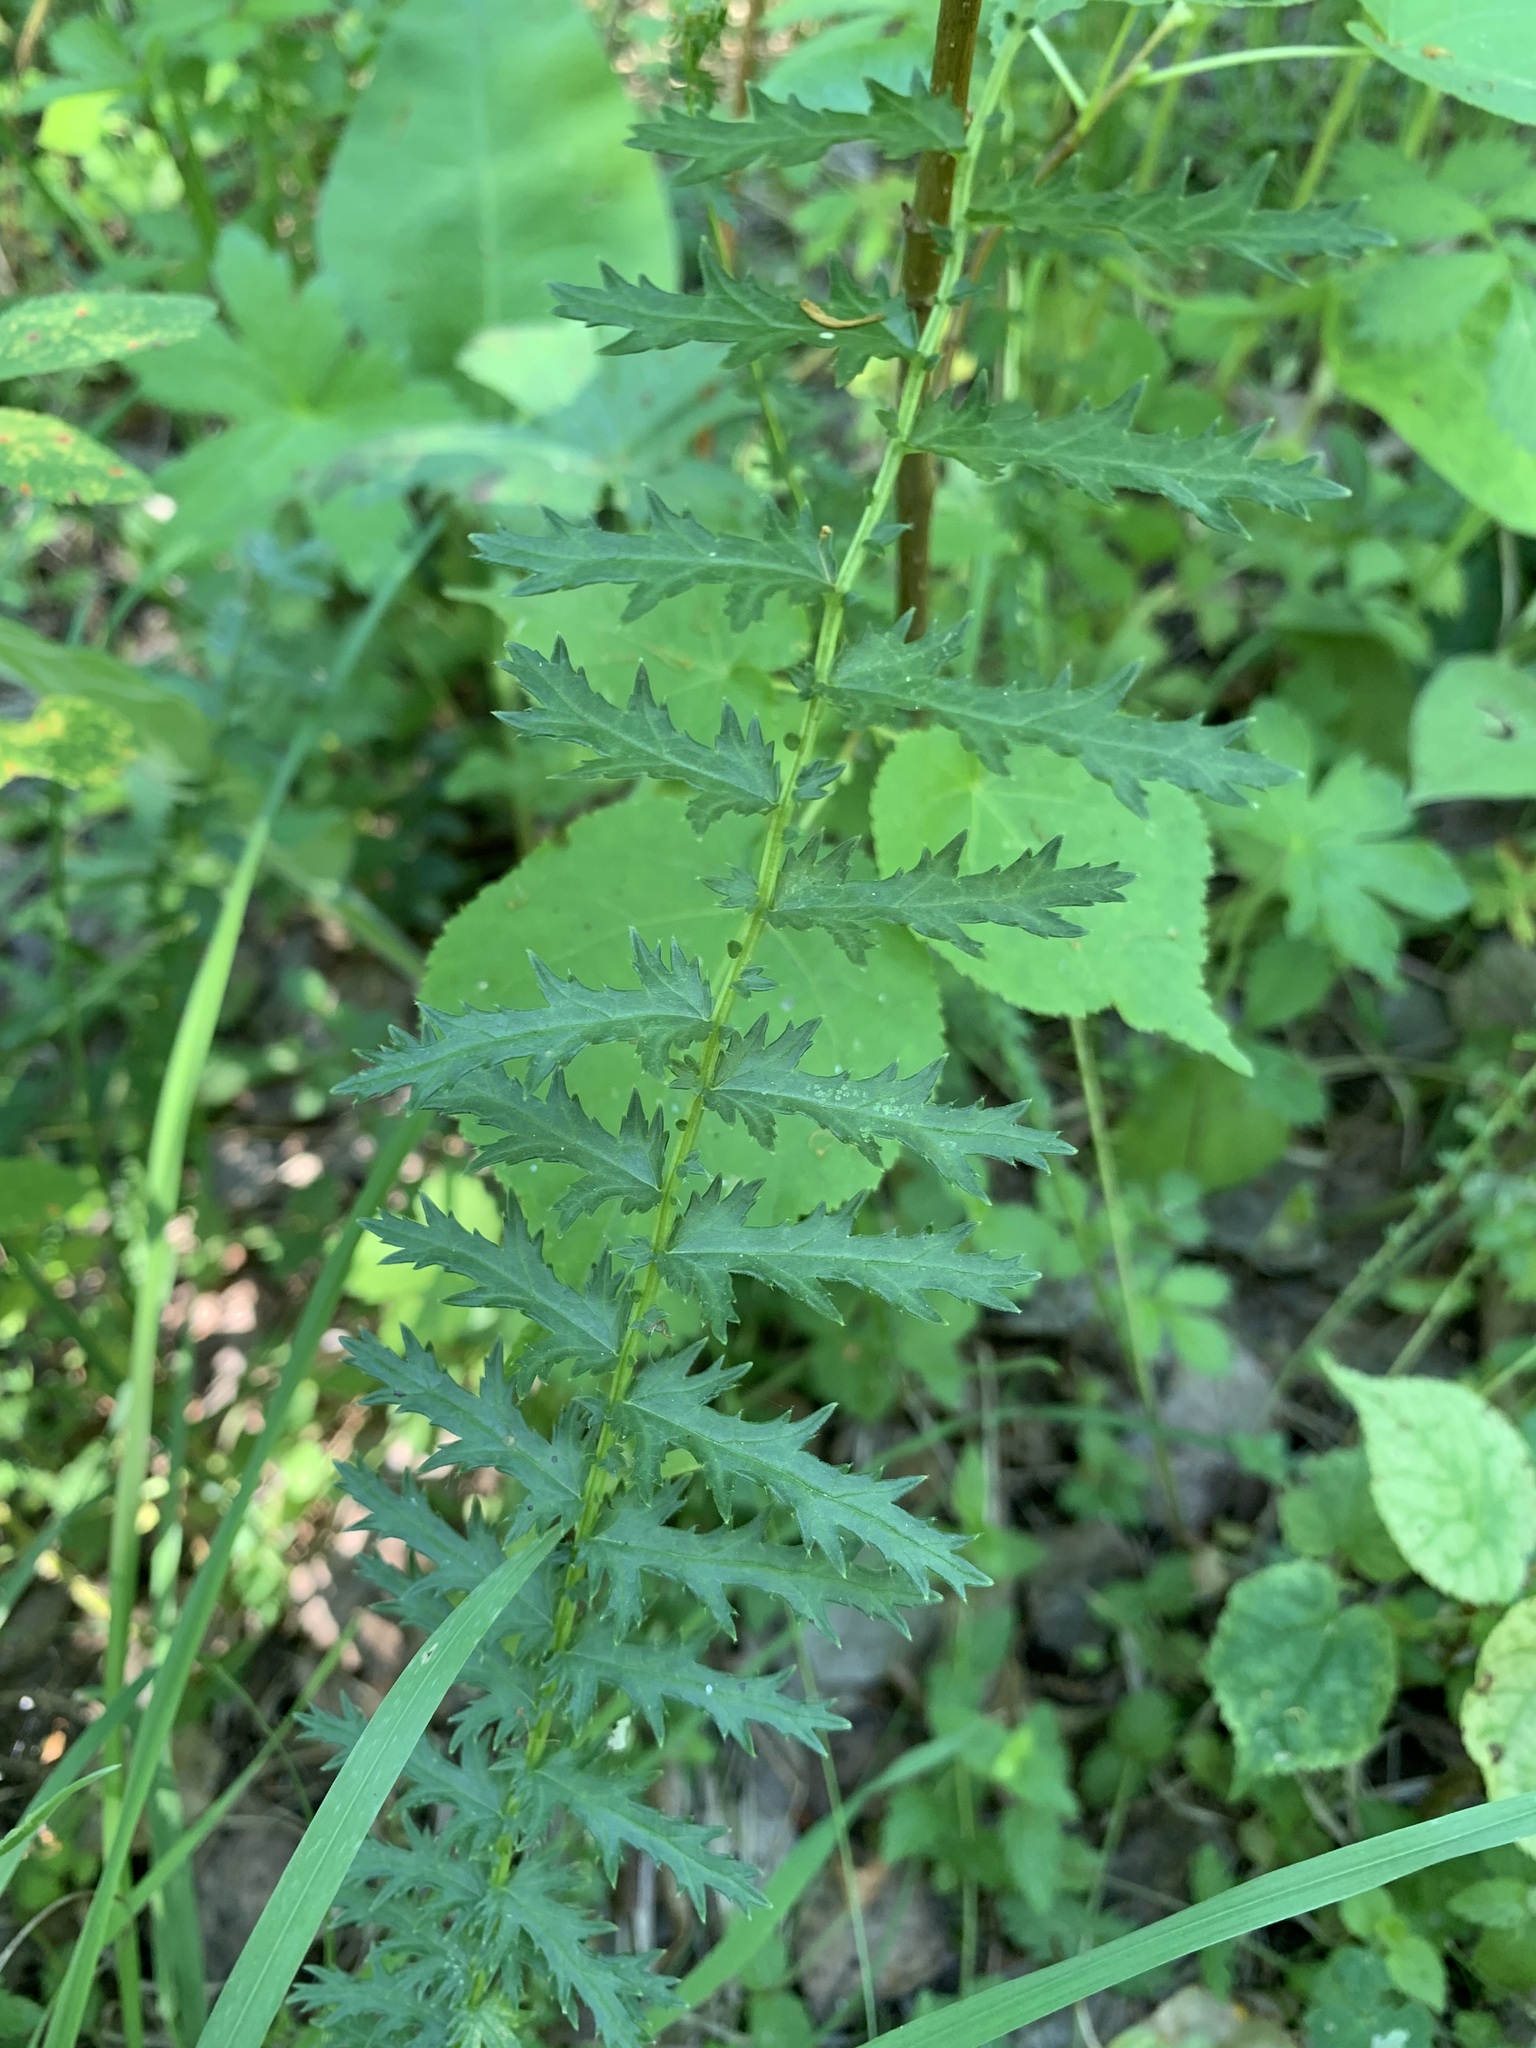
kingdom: Plantae
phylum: Tracheophyta
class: Magnoliopsida
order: Rosales
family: Rosaceae
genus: Filipendula
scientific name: Filipendula vulgaris
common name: Dropwort
